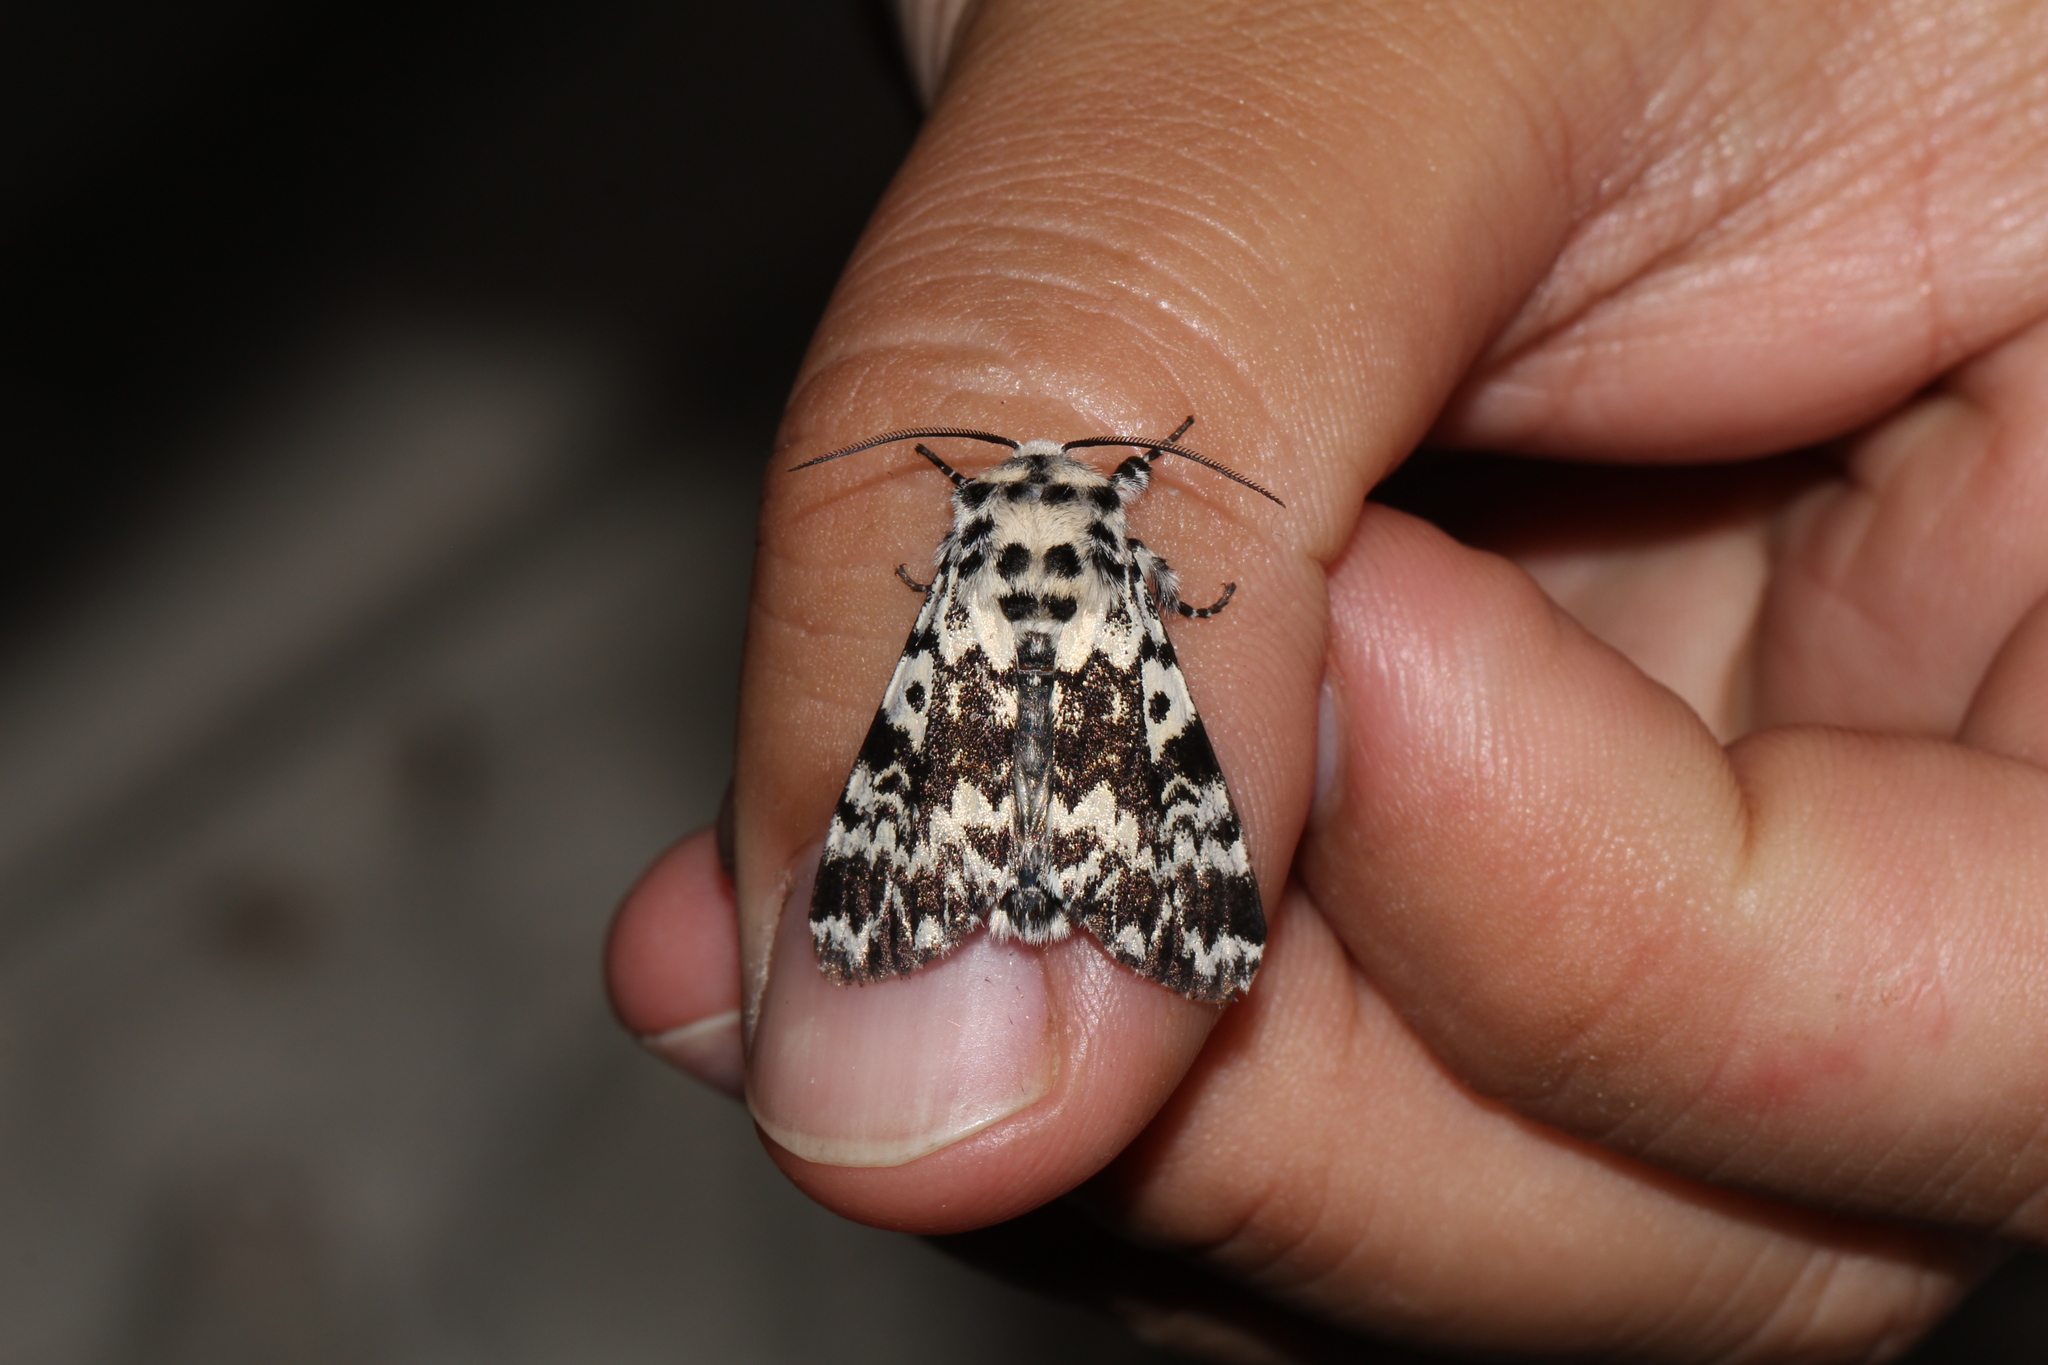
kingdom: Animalia
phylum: Arthropoda
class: Insecta
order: Lepidoptera
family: Noctuidae
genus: Panthea
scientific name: Panthea coenobita
